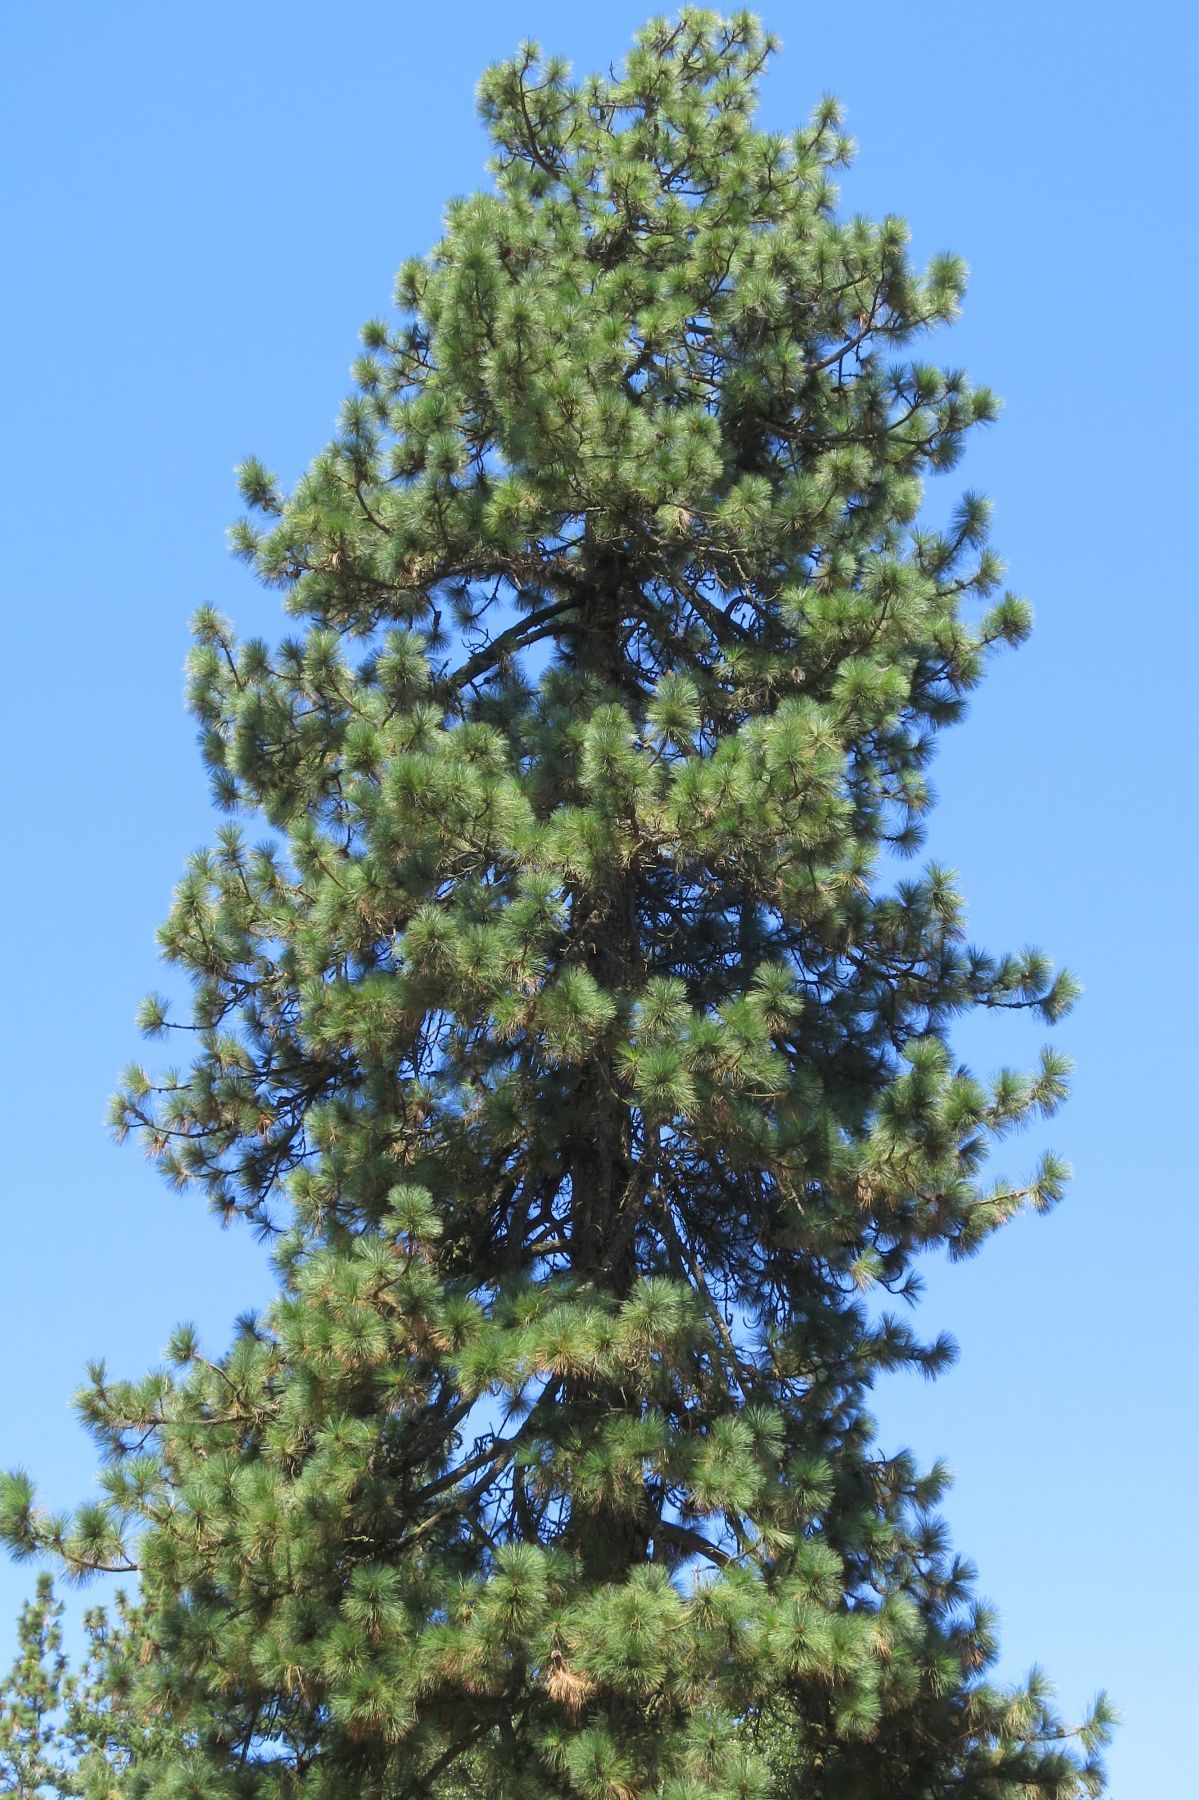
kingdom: Plantae
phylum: Tracheophyta
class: Pinopsida
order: Pinales
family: Pinaceae
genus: Pinus
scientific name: Pinus ponderosa
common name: Western yellow-pine
